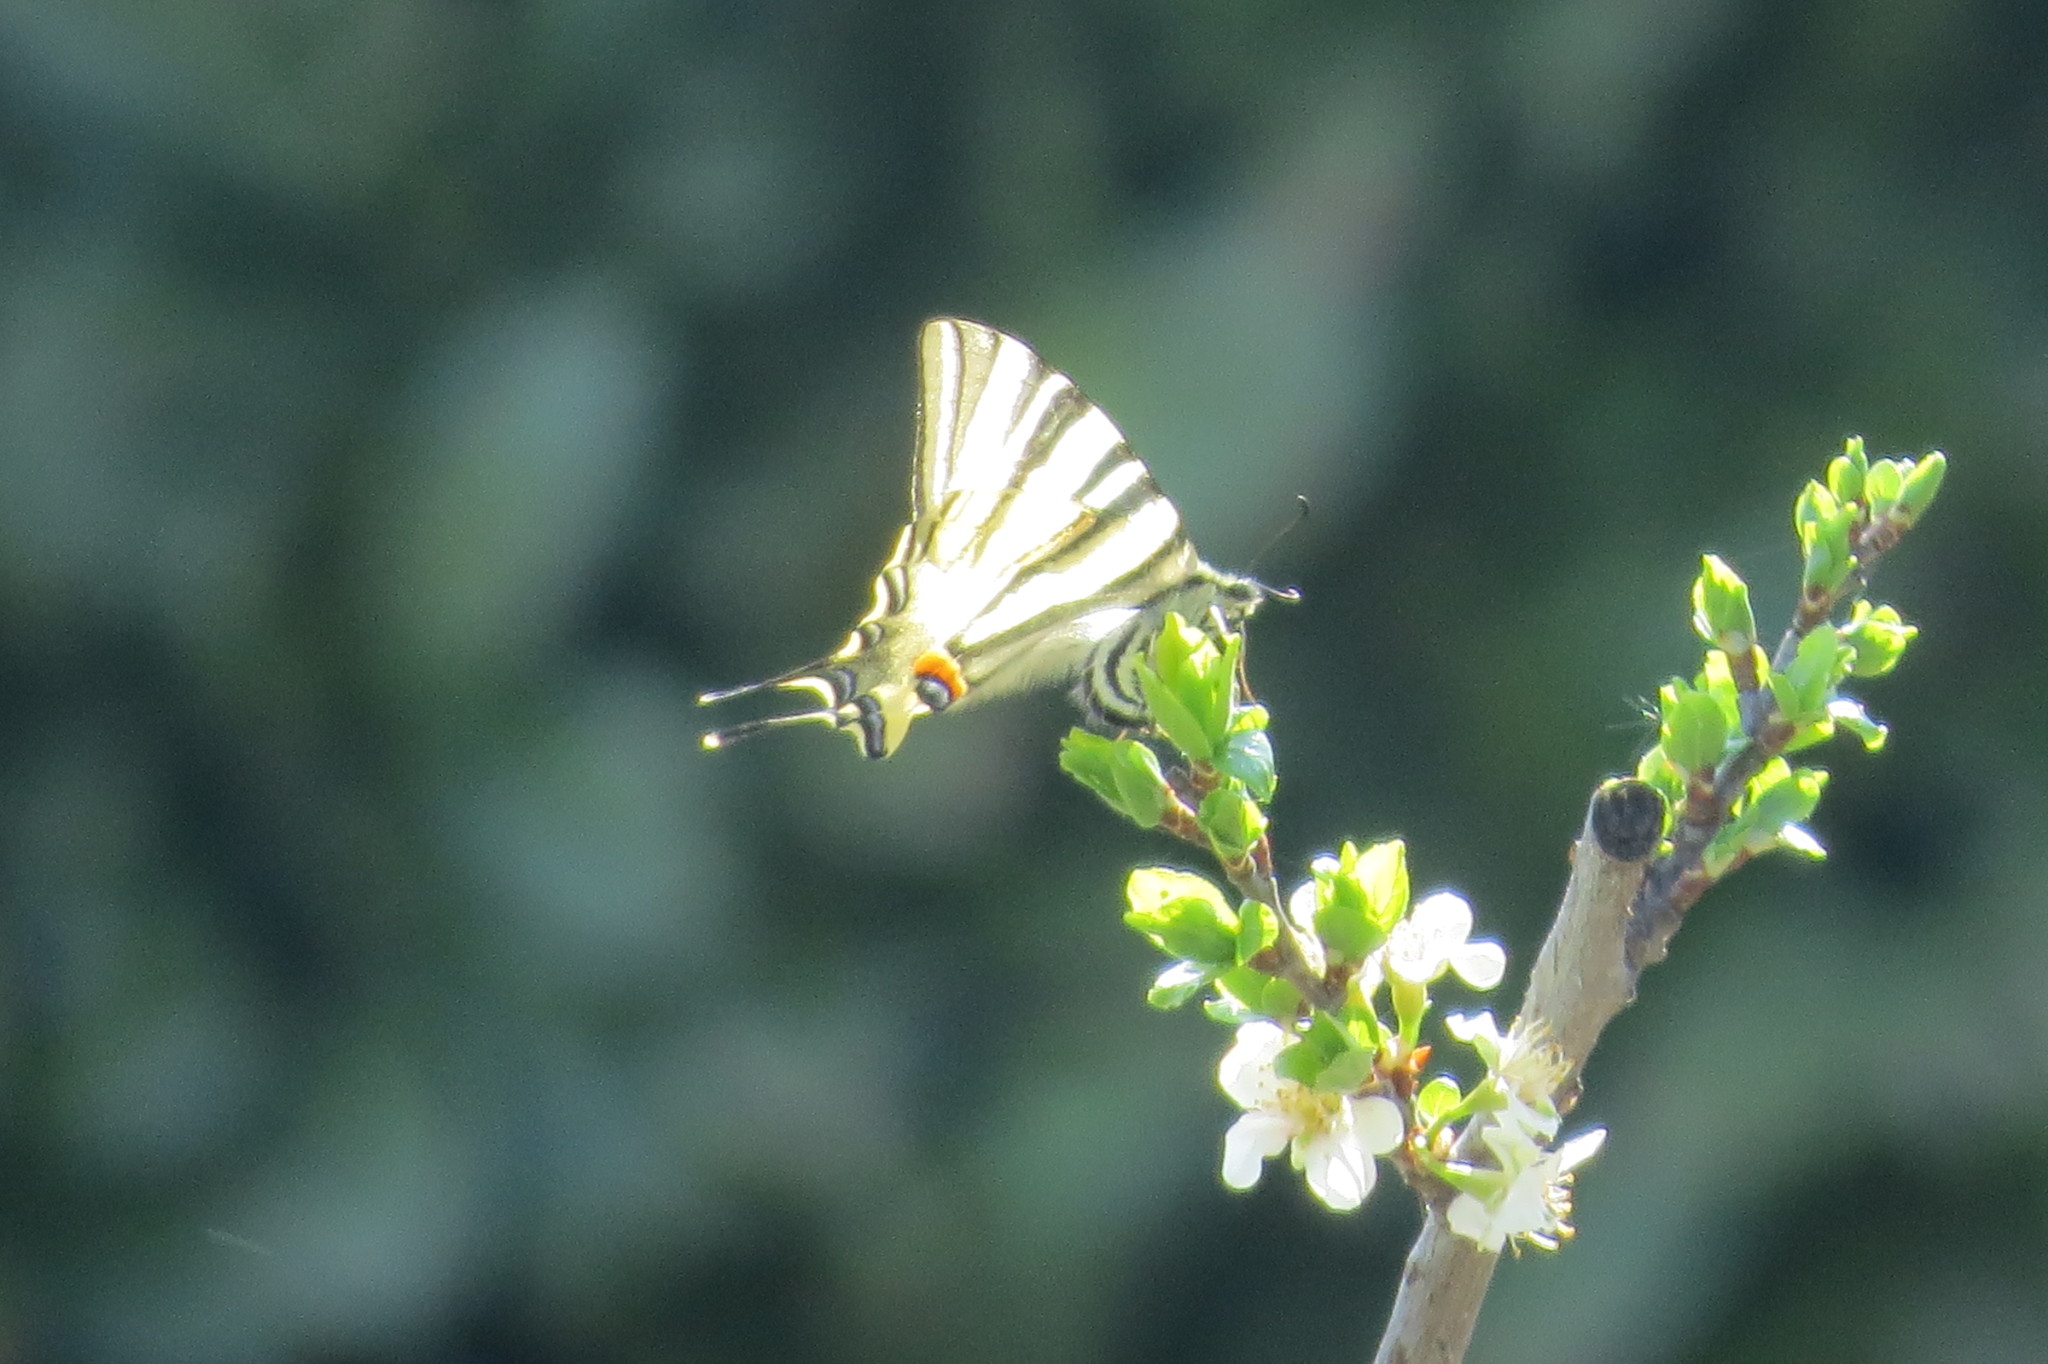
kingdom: Animalia
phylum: Arthropoda
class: Insecta
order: Lepidoptera
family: Papilionidae
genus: Iphiclides
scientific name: Iphiclides podalirius
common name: Scarce swallowtail
